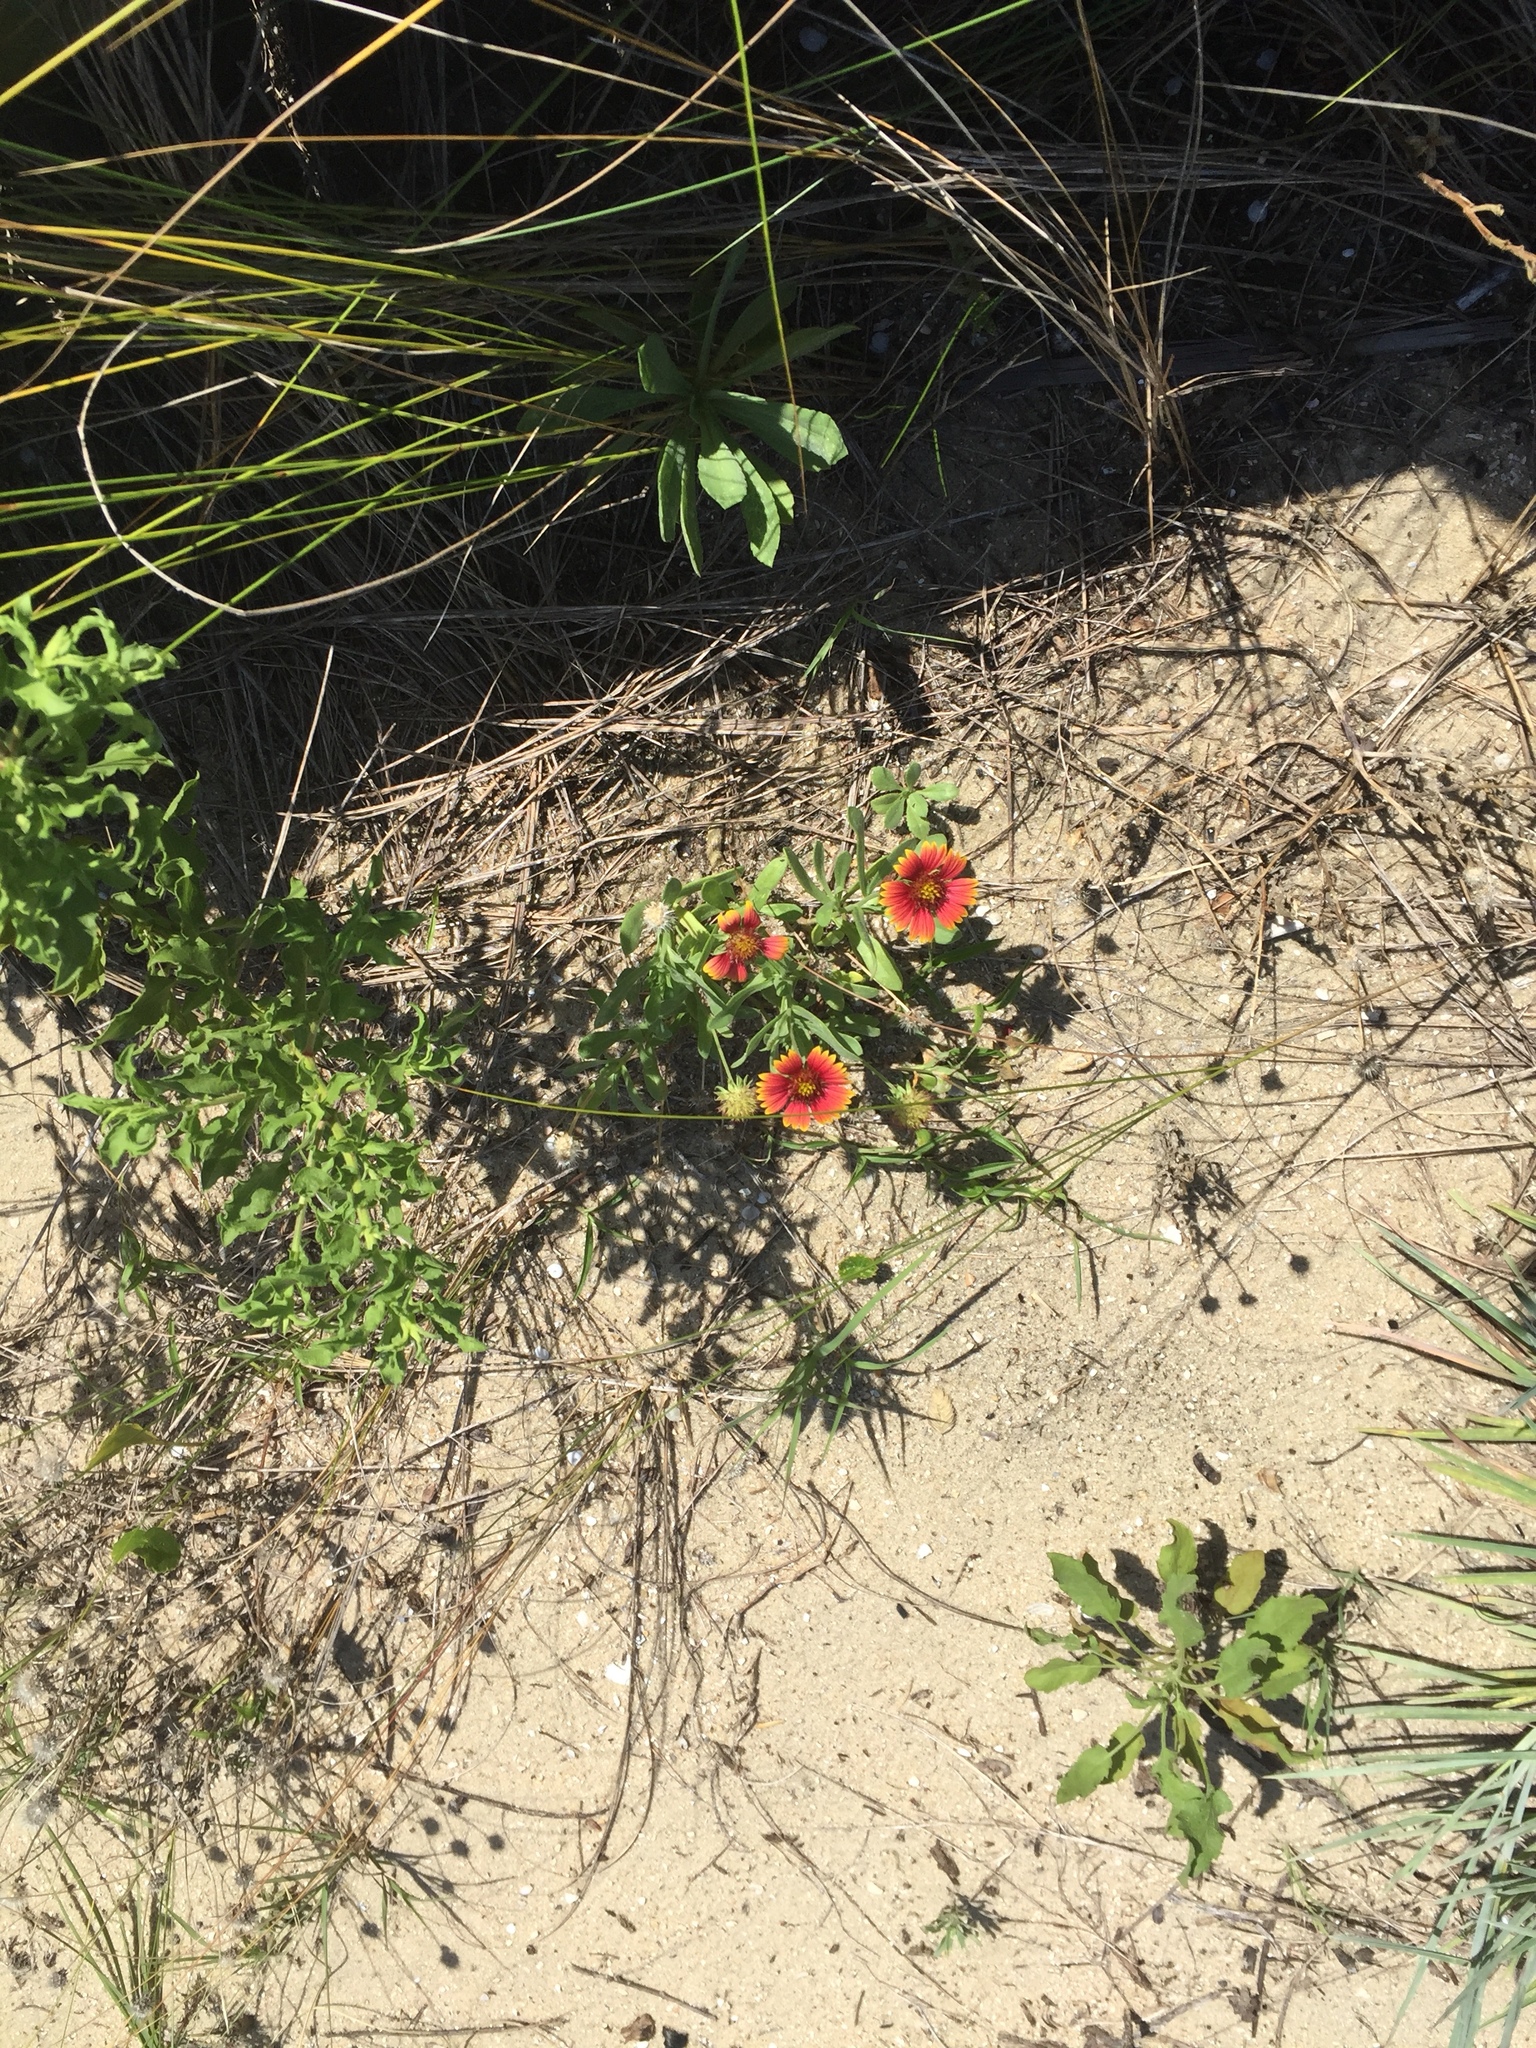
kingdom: Plantae
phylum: Tracheophyta
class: Magnoliopsida
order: Asterales
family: Asteraceae
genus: Gaillardia
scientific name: Gaillardia pulchella
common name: Firewheel
